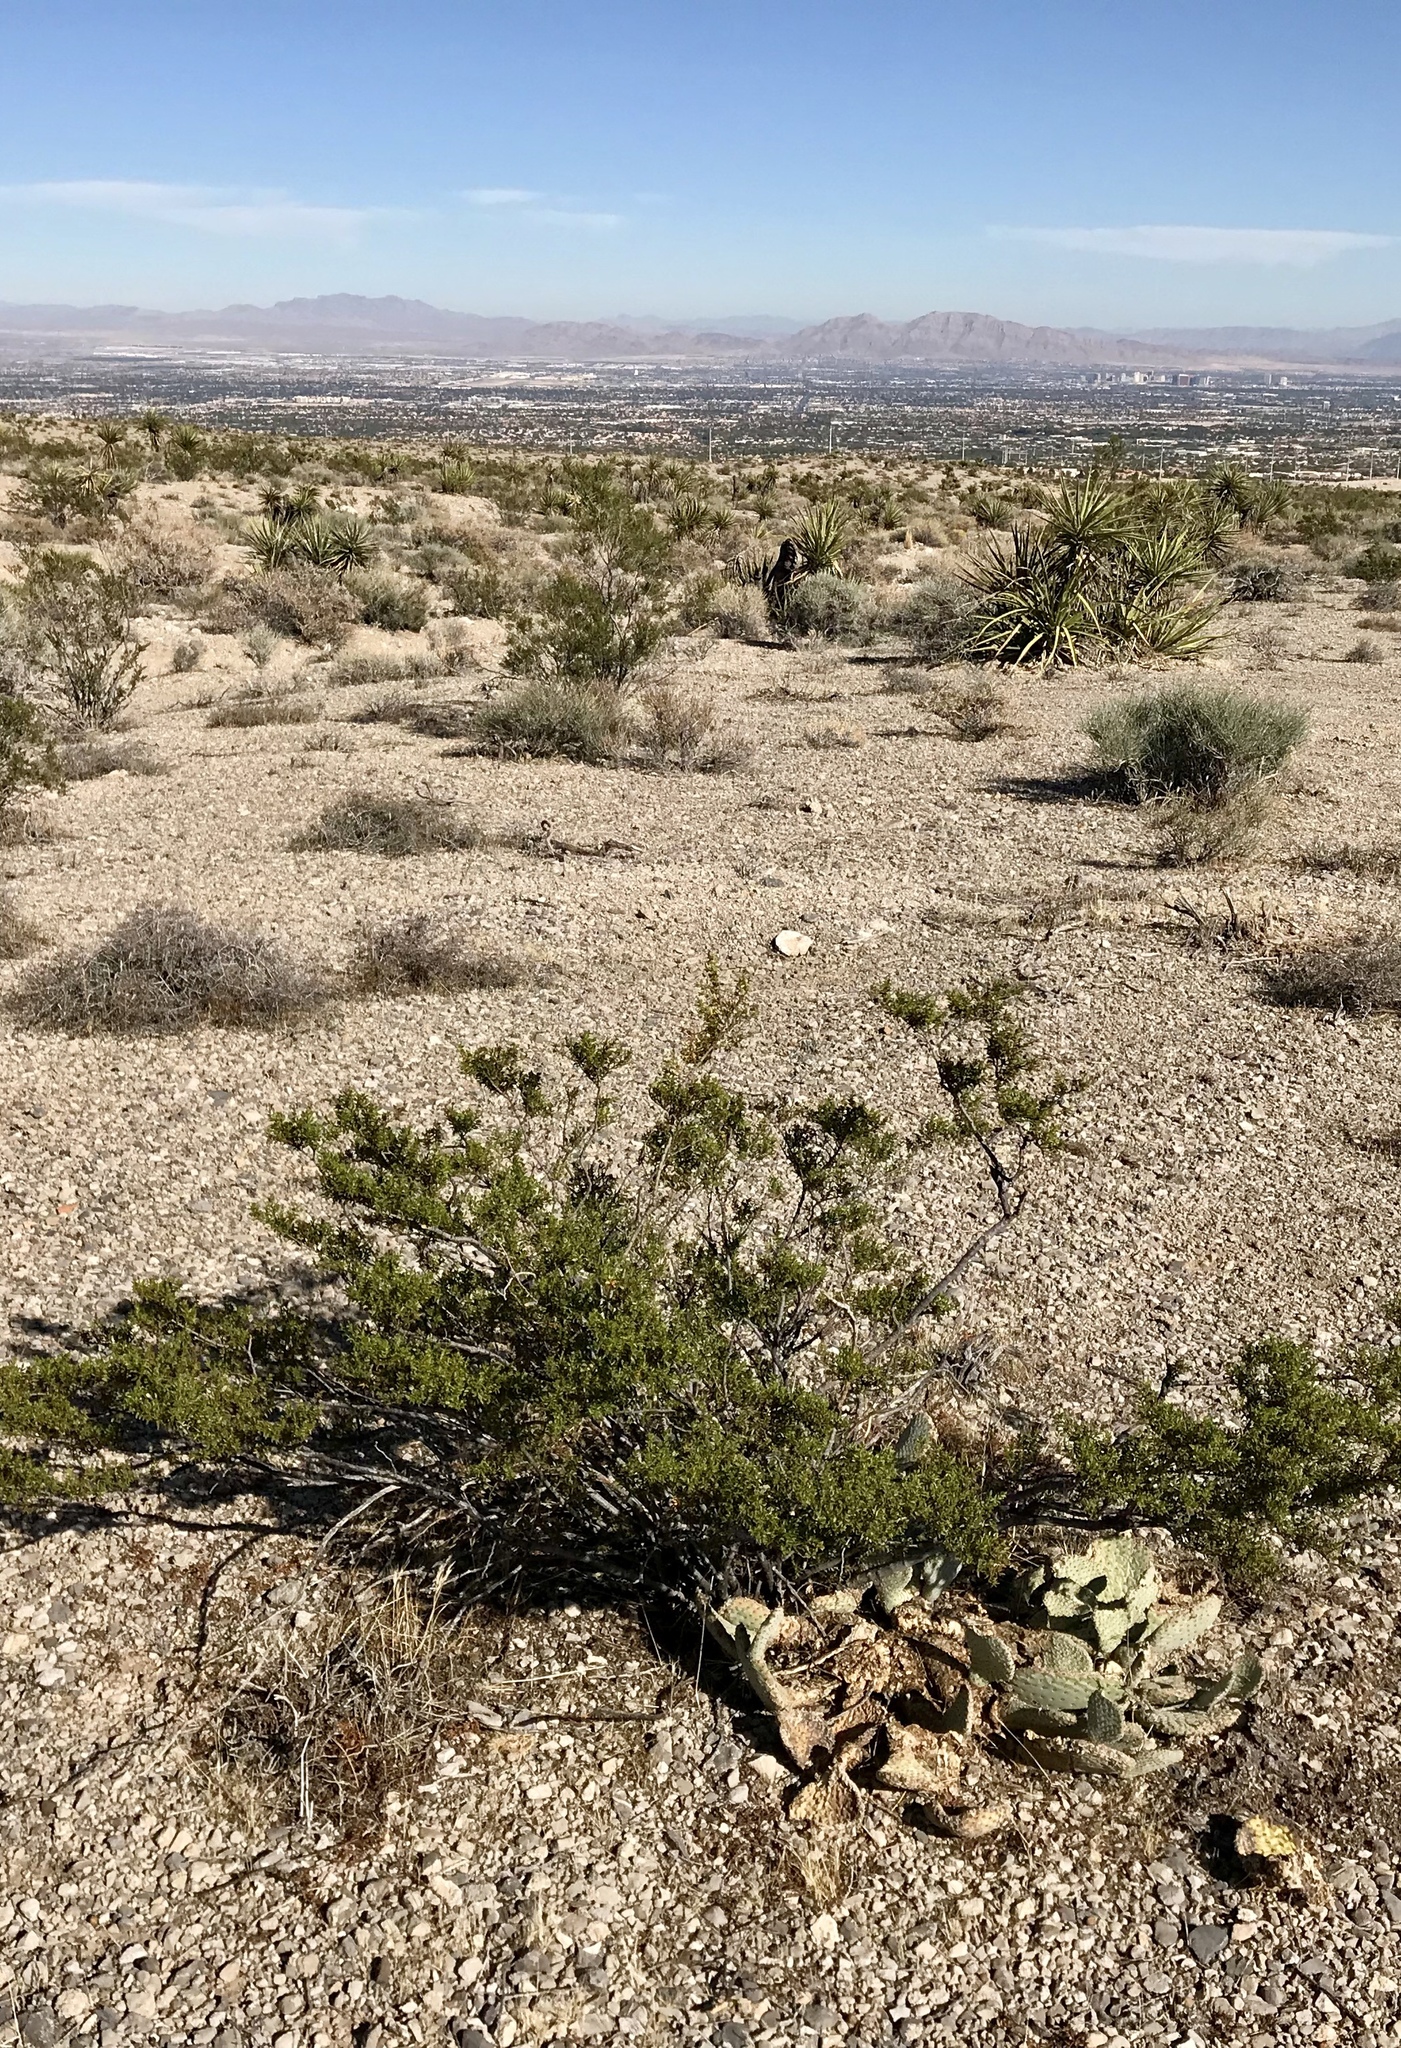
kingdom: Plantae
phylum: Tracheophyta
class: Magnoliopsida
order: Zygophyllales
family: Zygophyllaceae
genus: Larrea
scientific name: Larrea tridentata
